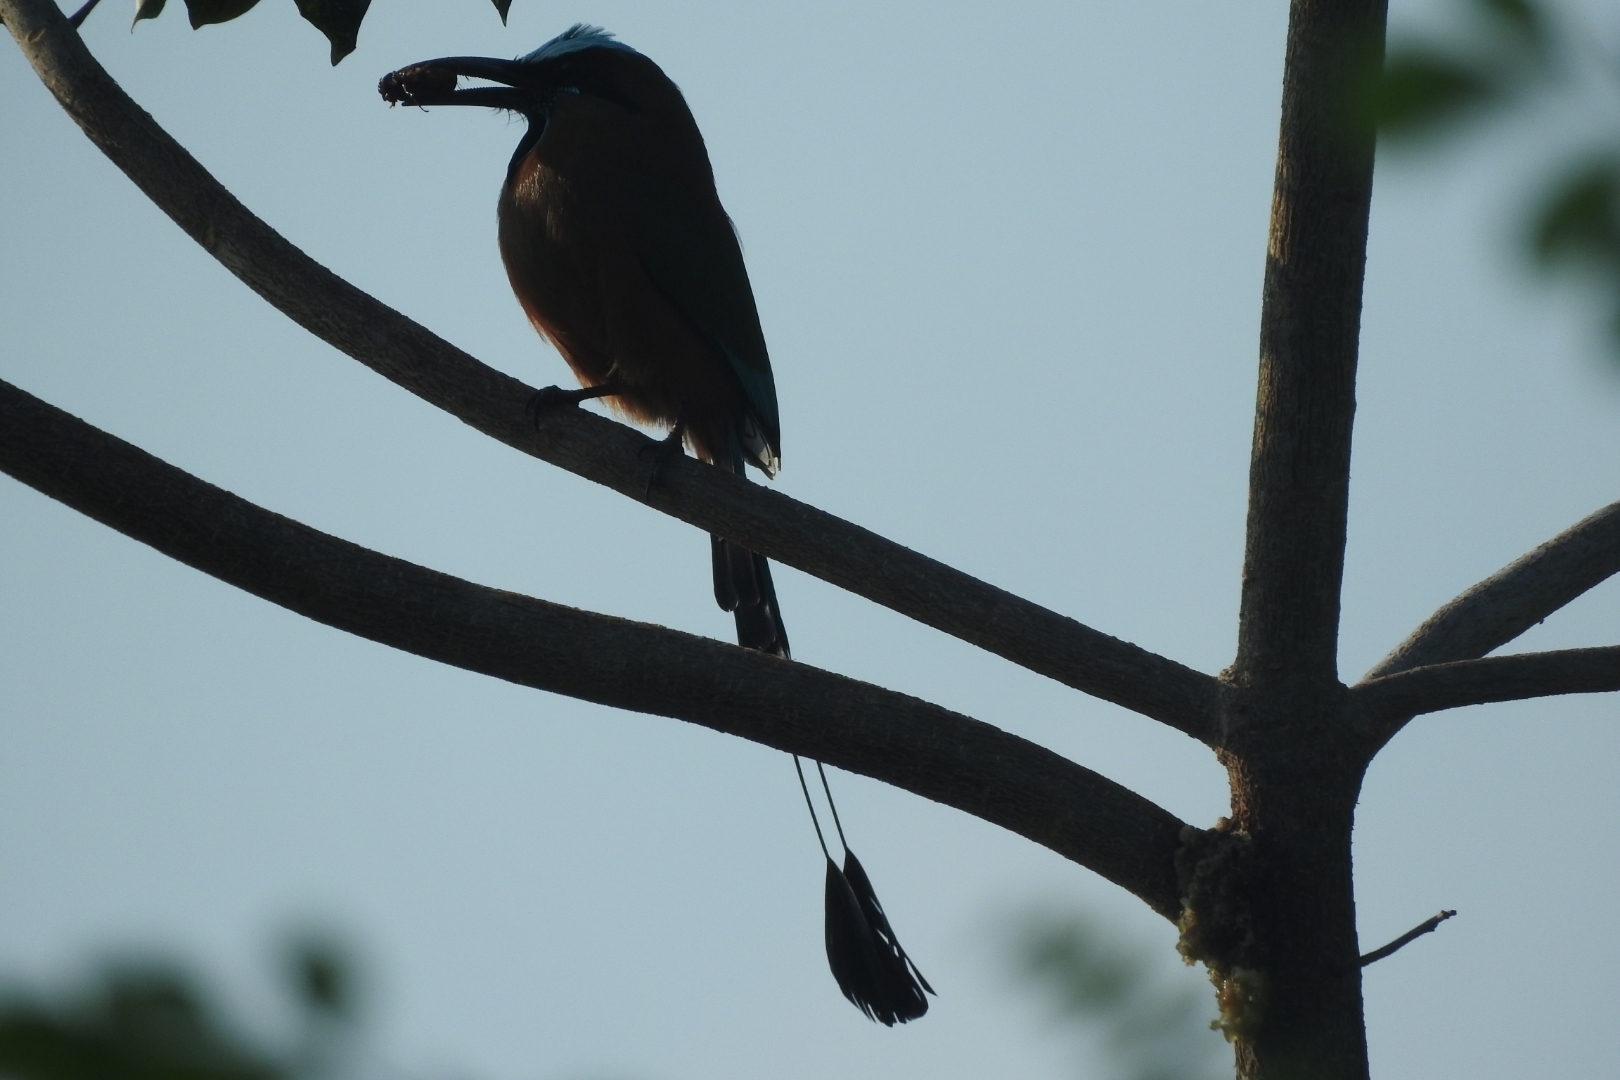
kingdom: Animalia
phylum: Chordata
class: Aves
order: Coraciiformes
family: Momotidae
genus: Eumomota
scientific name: Eumomota superciliosa
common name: Turquoise-browed motmot
